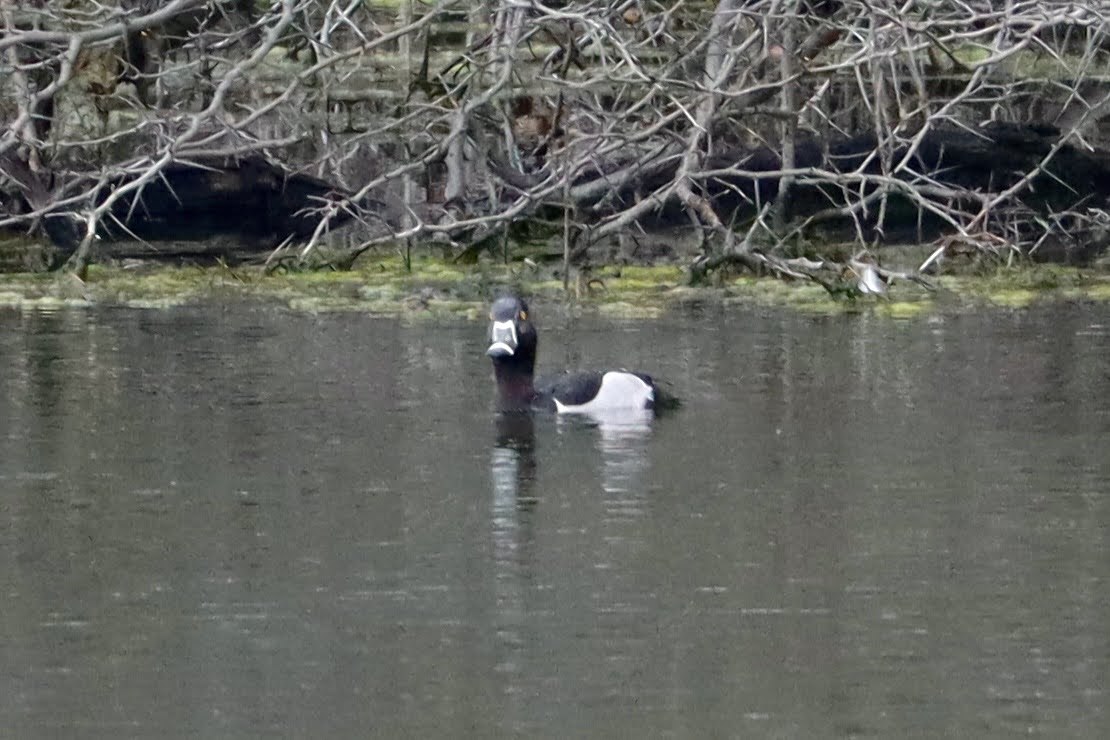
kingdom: Animalia
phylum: Chordata
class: Aves
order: Anseriformes
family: Anatidae
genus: Aythya
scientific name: Aythya collaris
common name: Ring-necked duck
